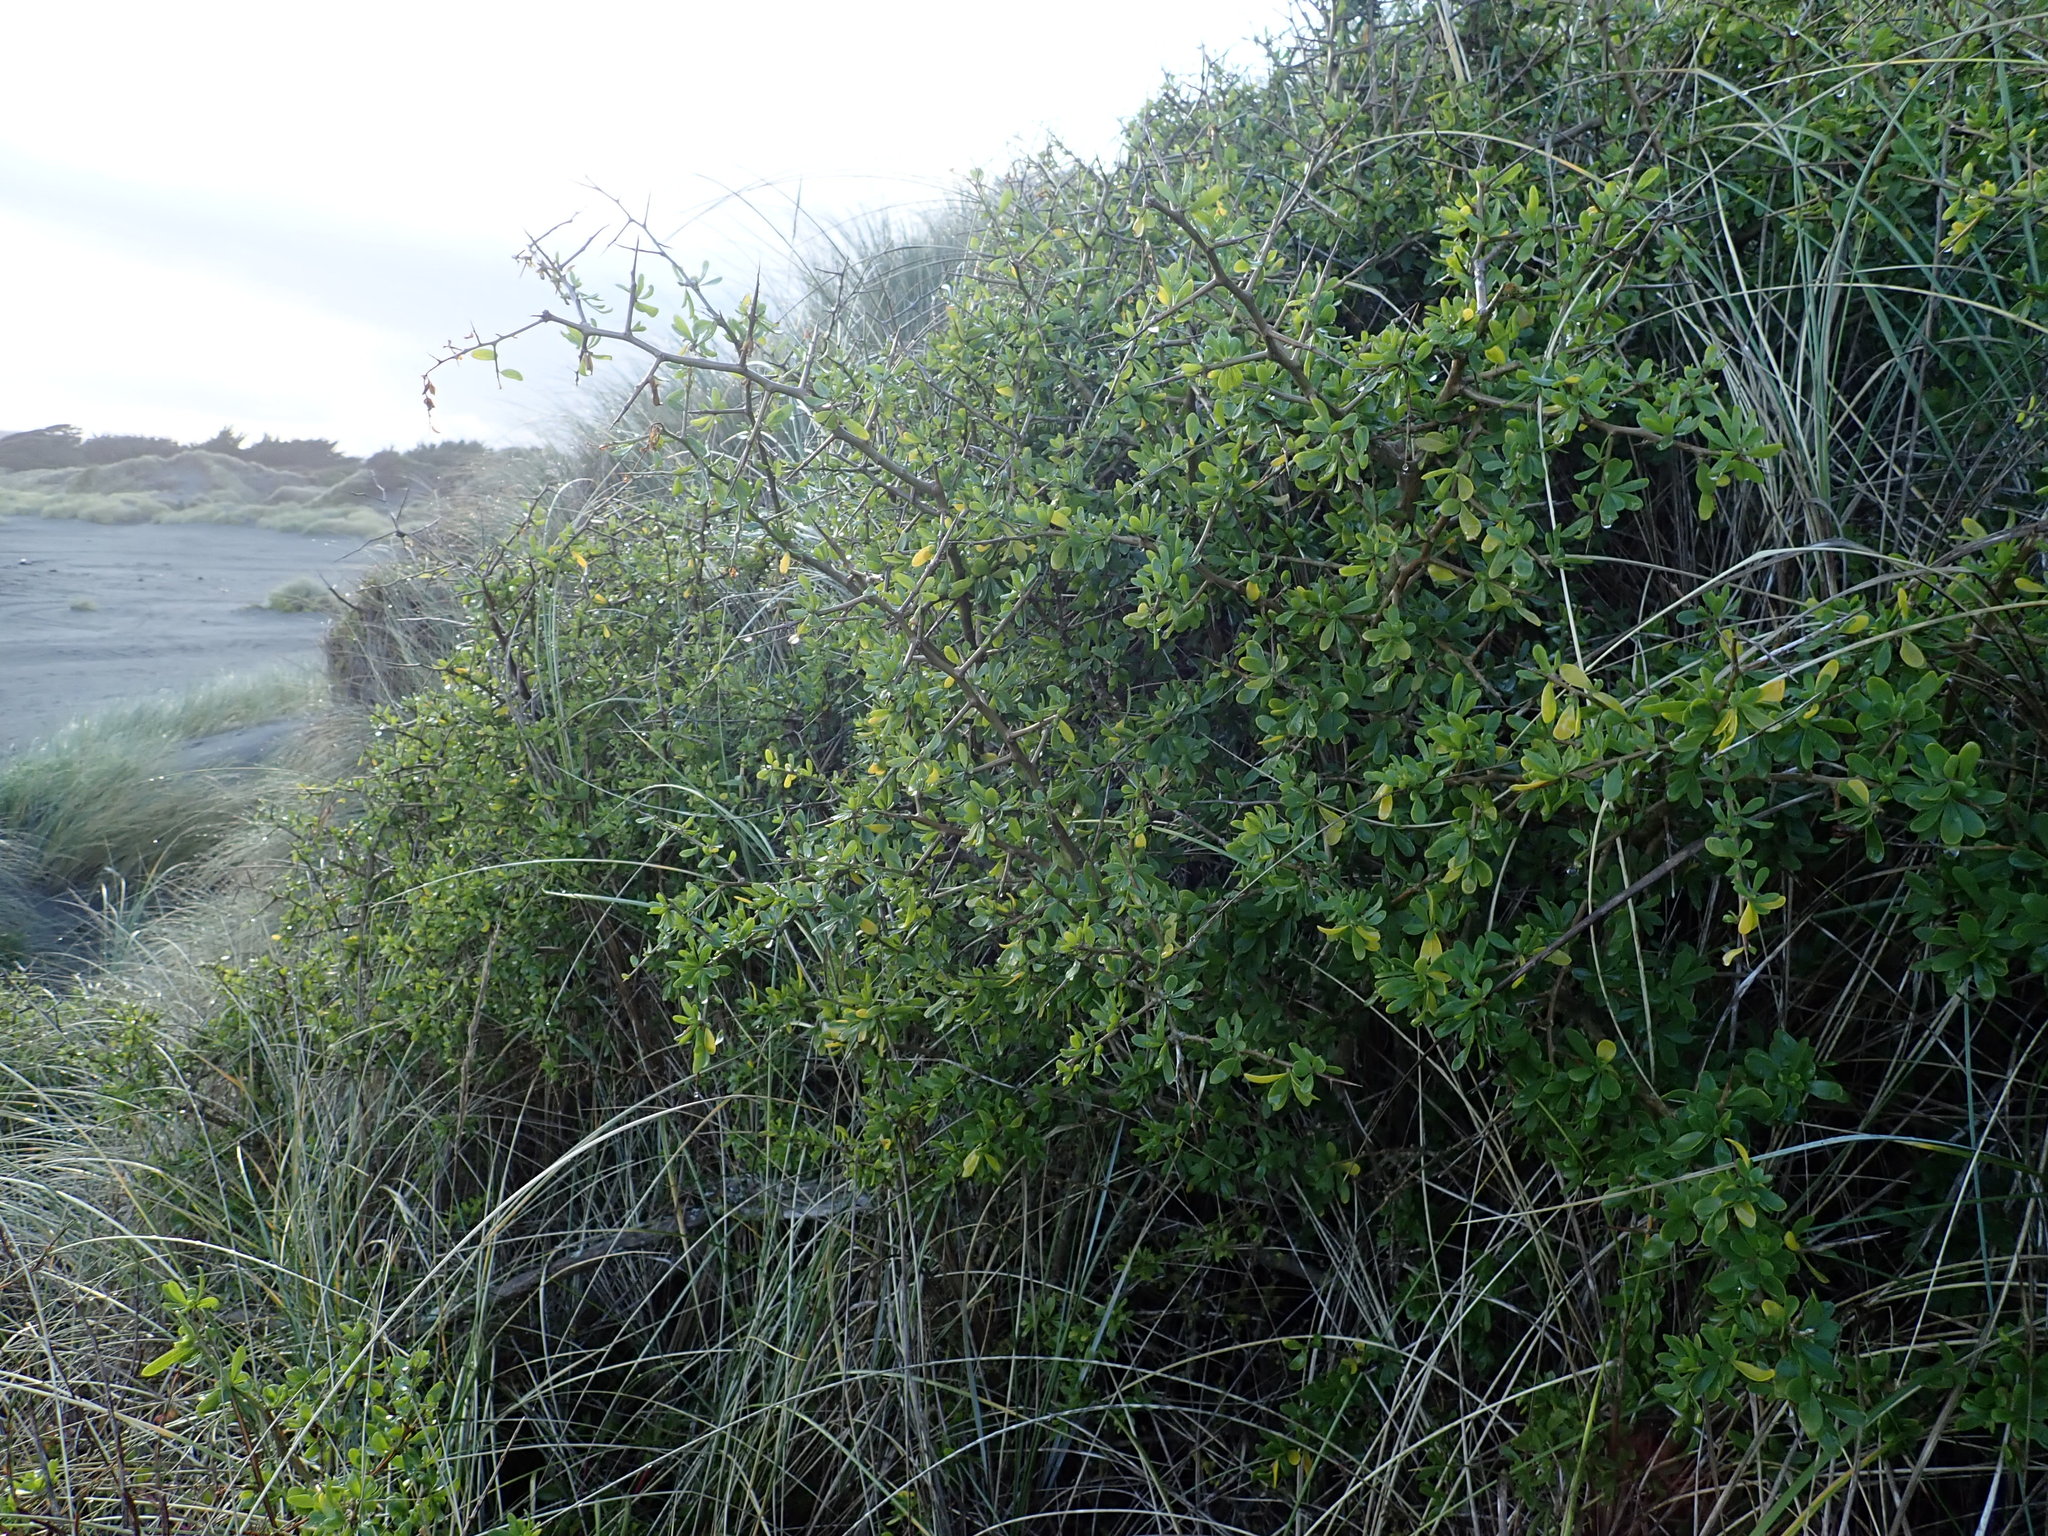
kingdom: Plantae
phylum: Tracheophyta
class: Magnoliopsida
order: Solanales
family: Solanaceae
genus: Lycium
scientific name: Lycium ferocissimum
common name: African boxthorn
